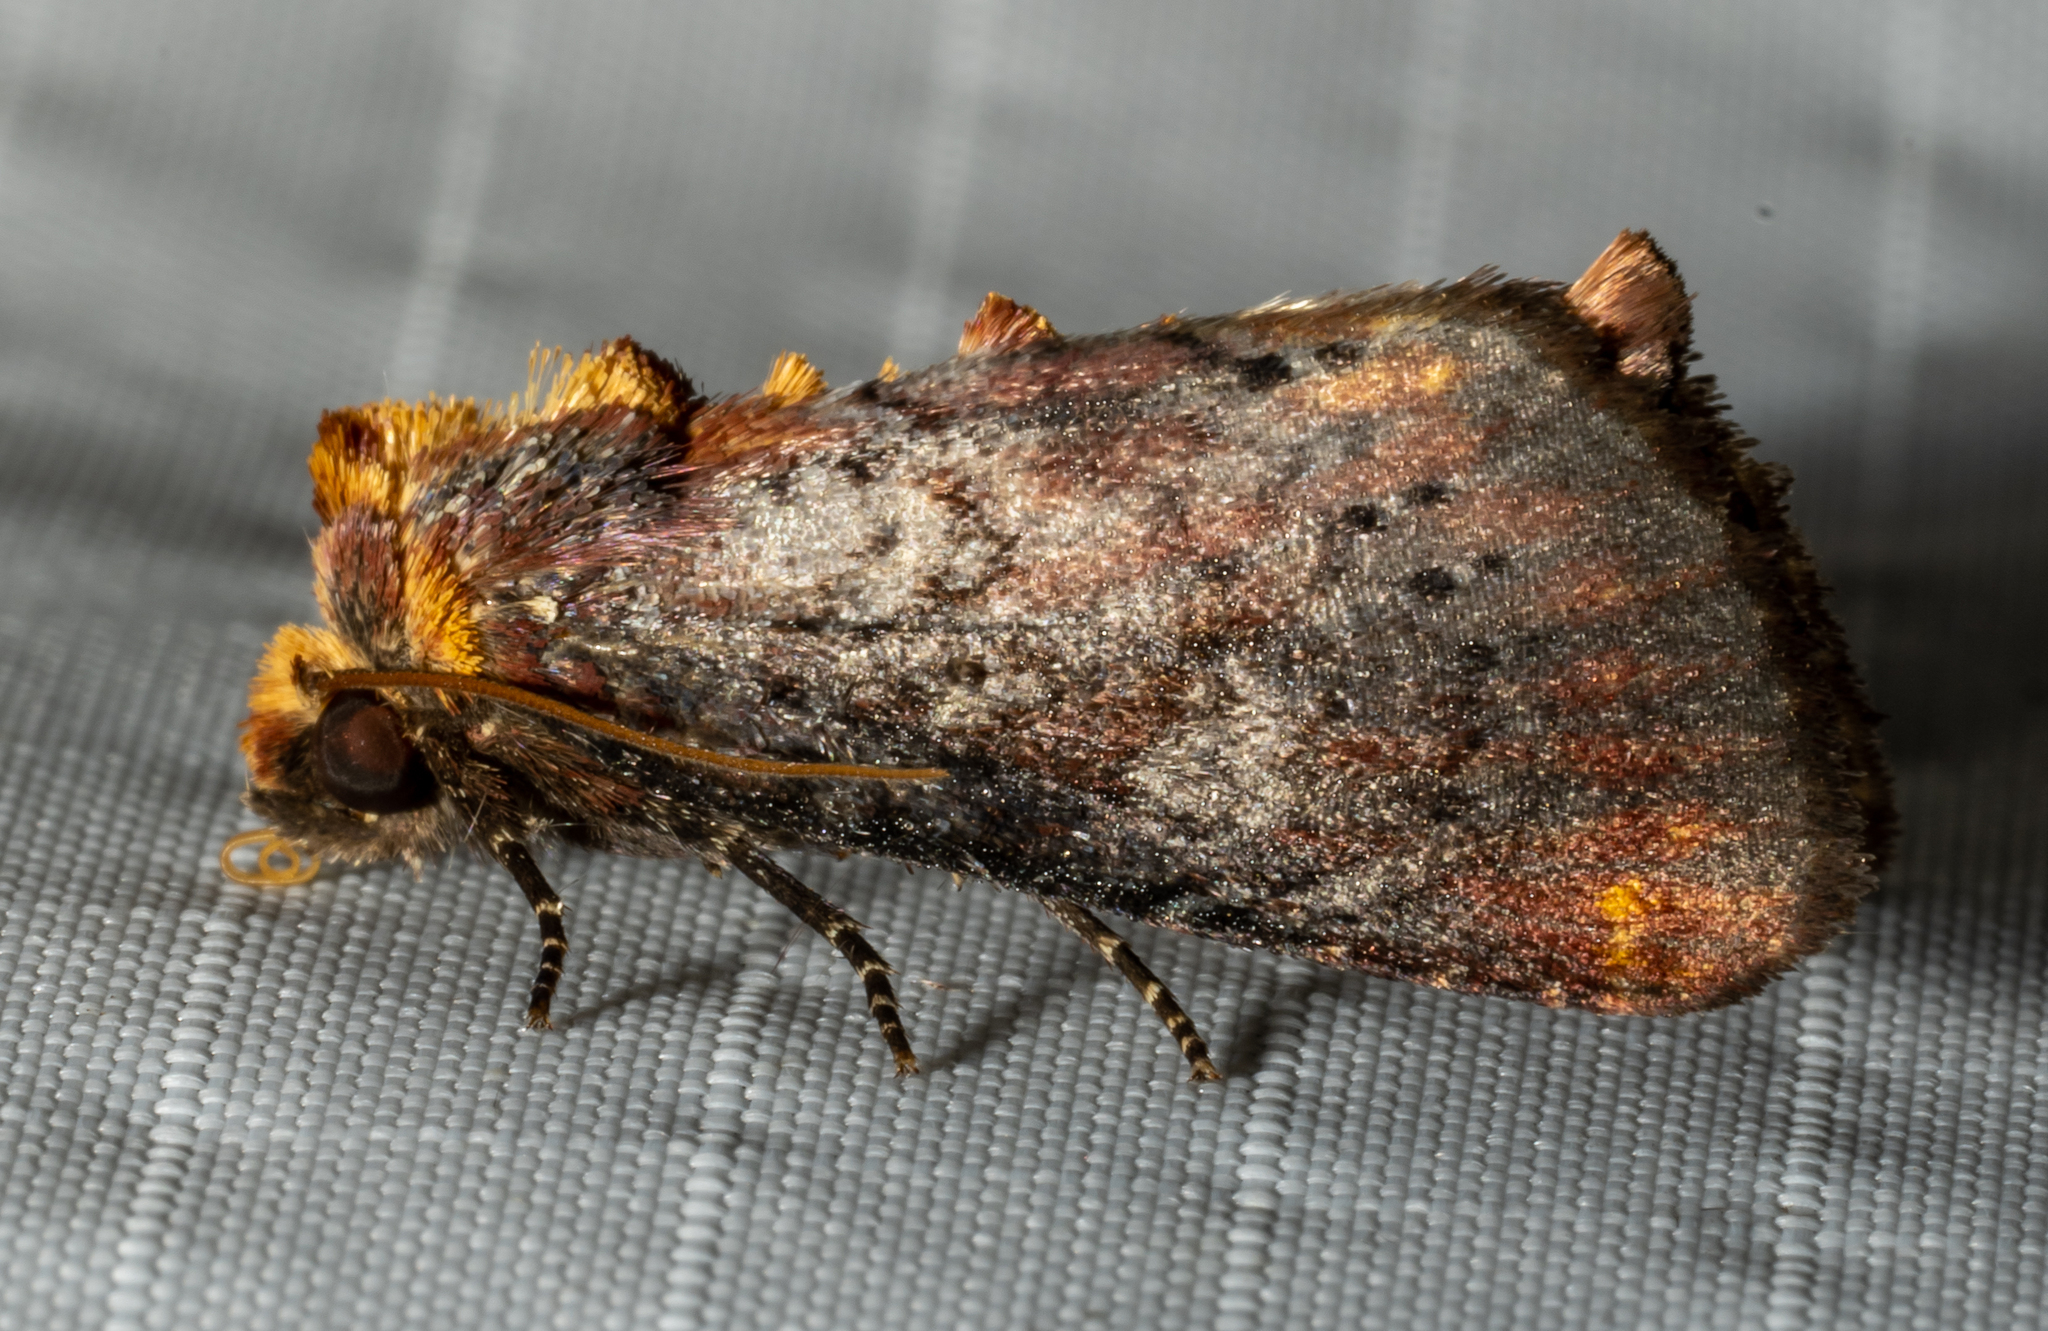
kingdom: Animalia
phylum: Arthropoda
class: Insecta
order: Lepidoptera
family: Noctuidae
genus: Achatodes
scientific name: Achatodes zeae
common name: Elder shoot borer
